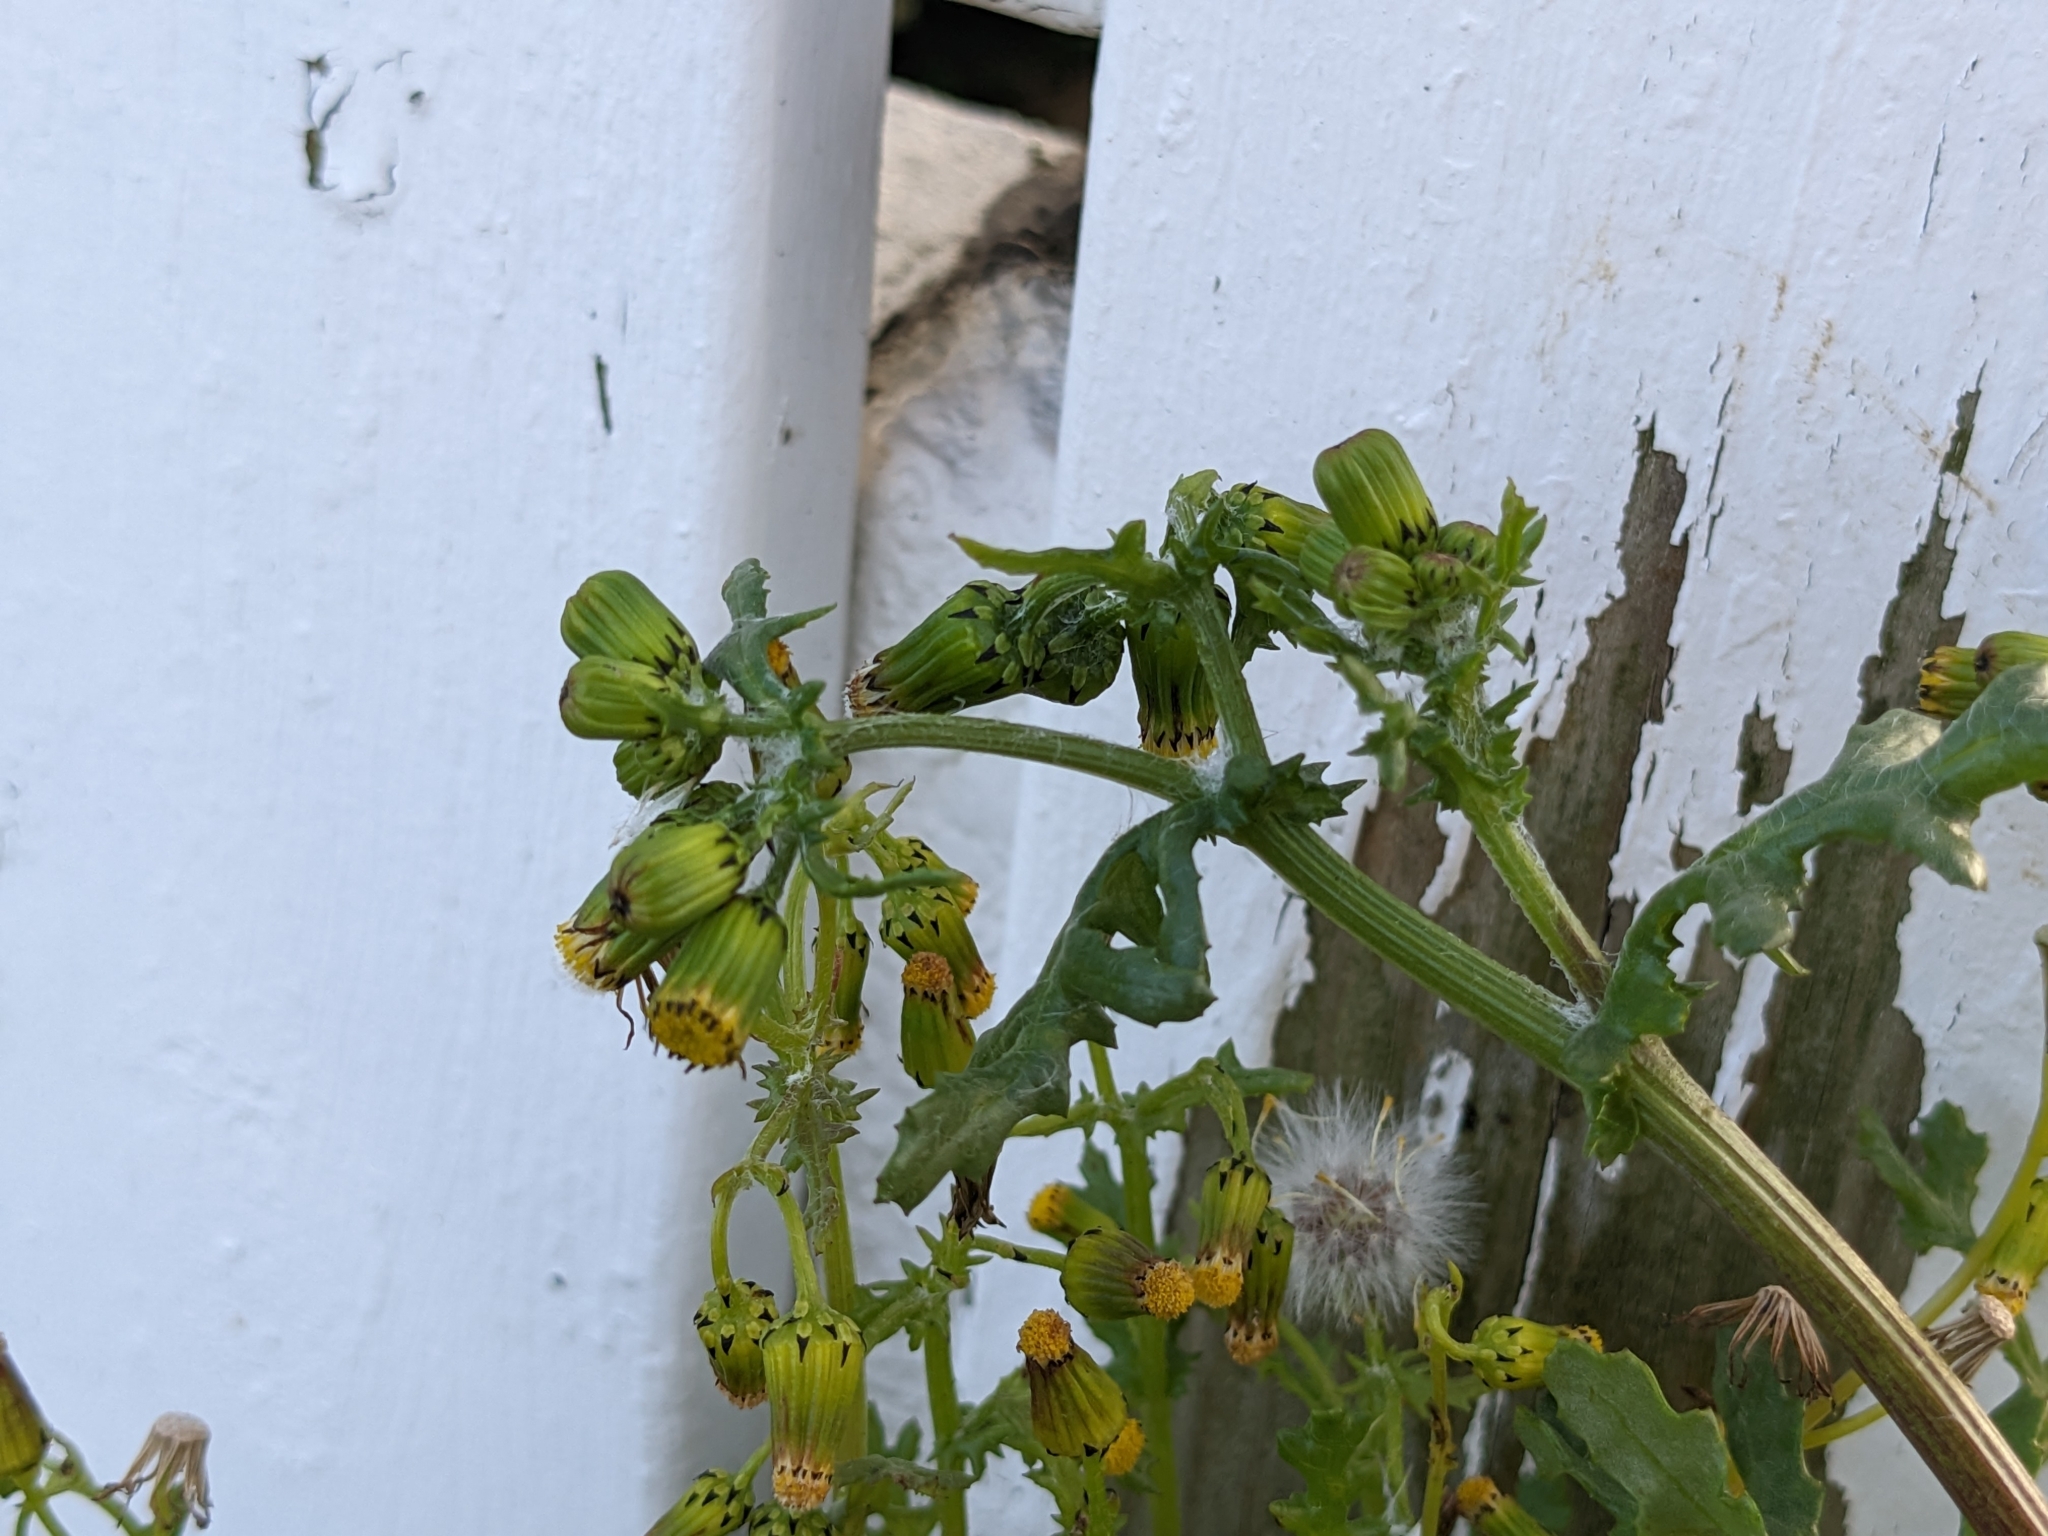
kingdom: Plantae
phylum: Tracheophyta
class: Magnoliopsida
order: Asterales
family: Asteraceae
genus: Senecio
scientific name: Senecio vulgaris
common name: Old-man-in-the-spring
